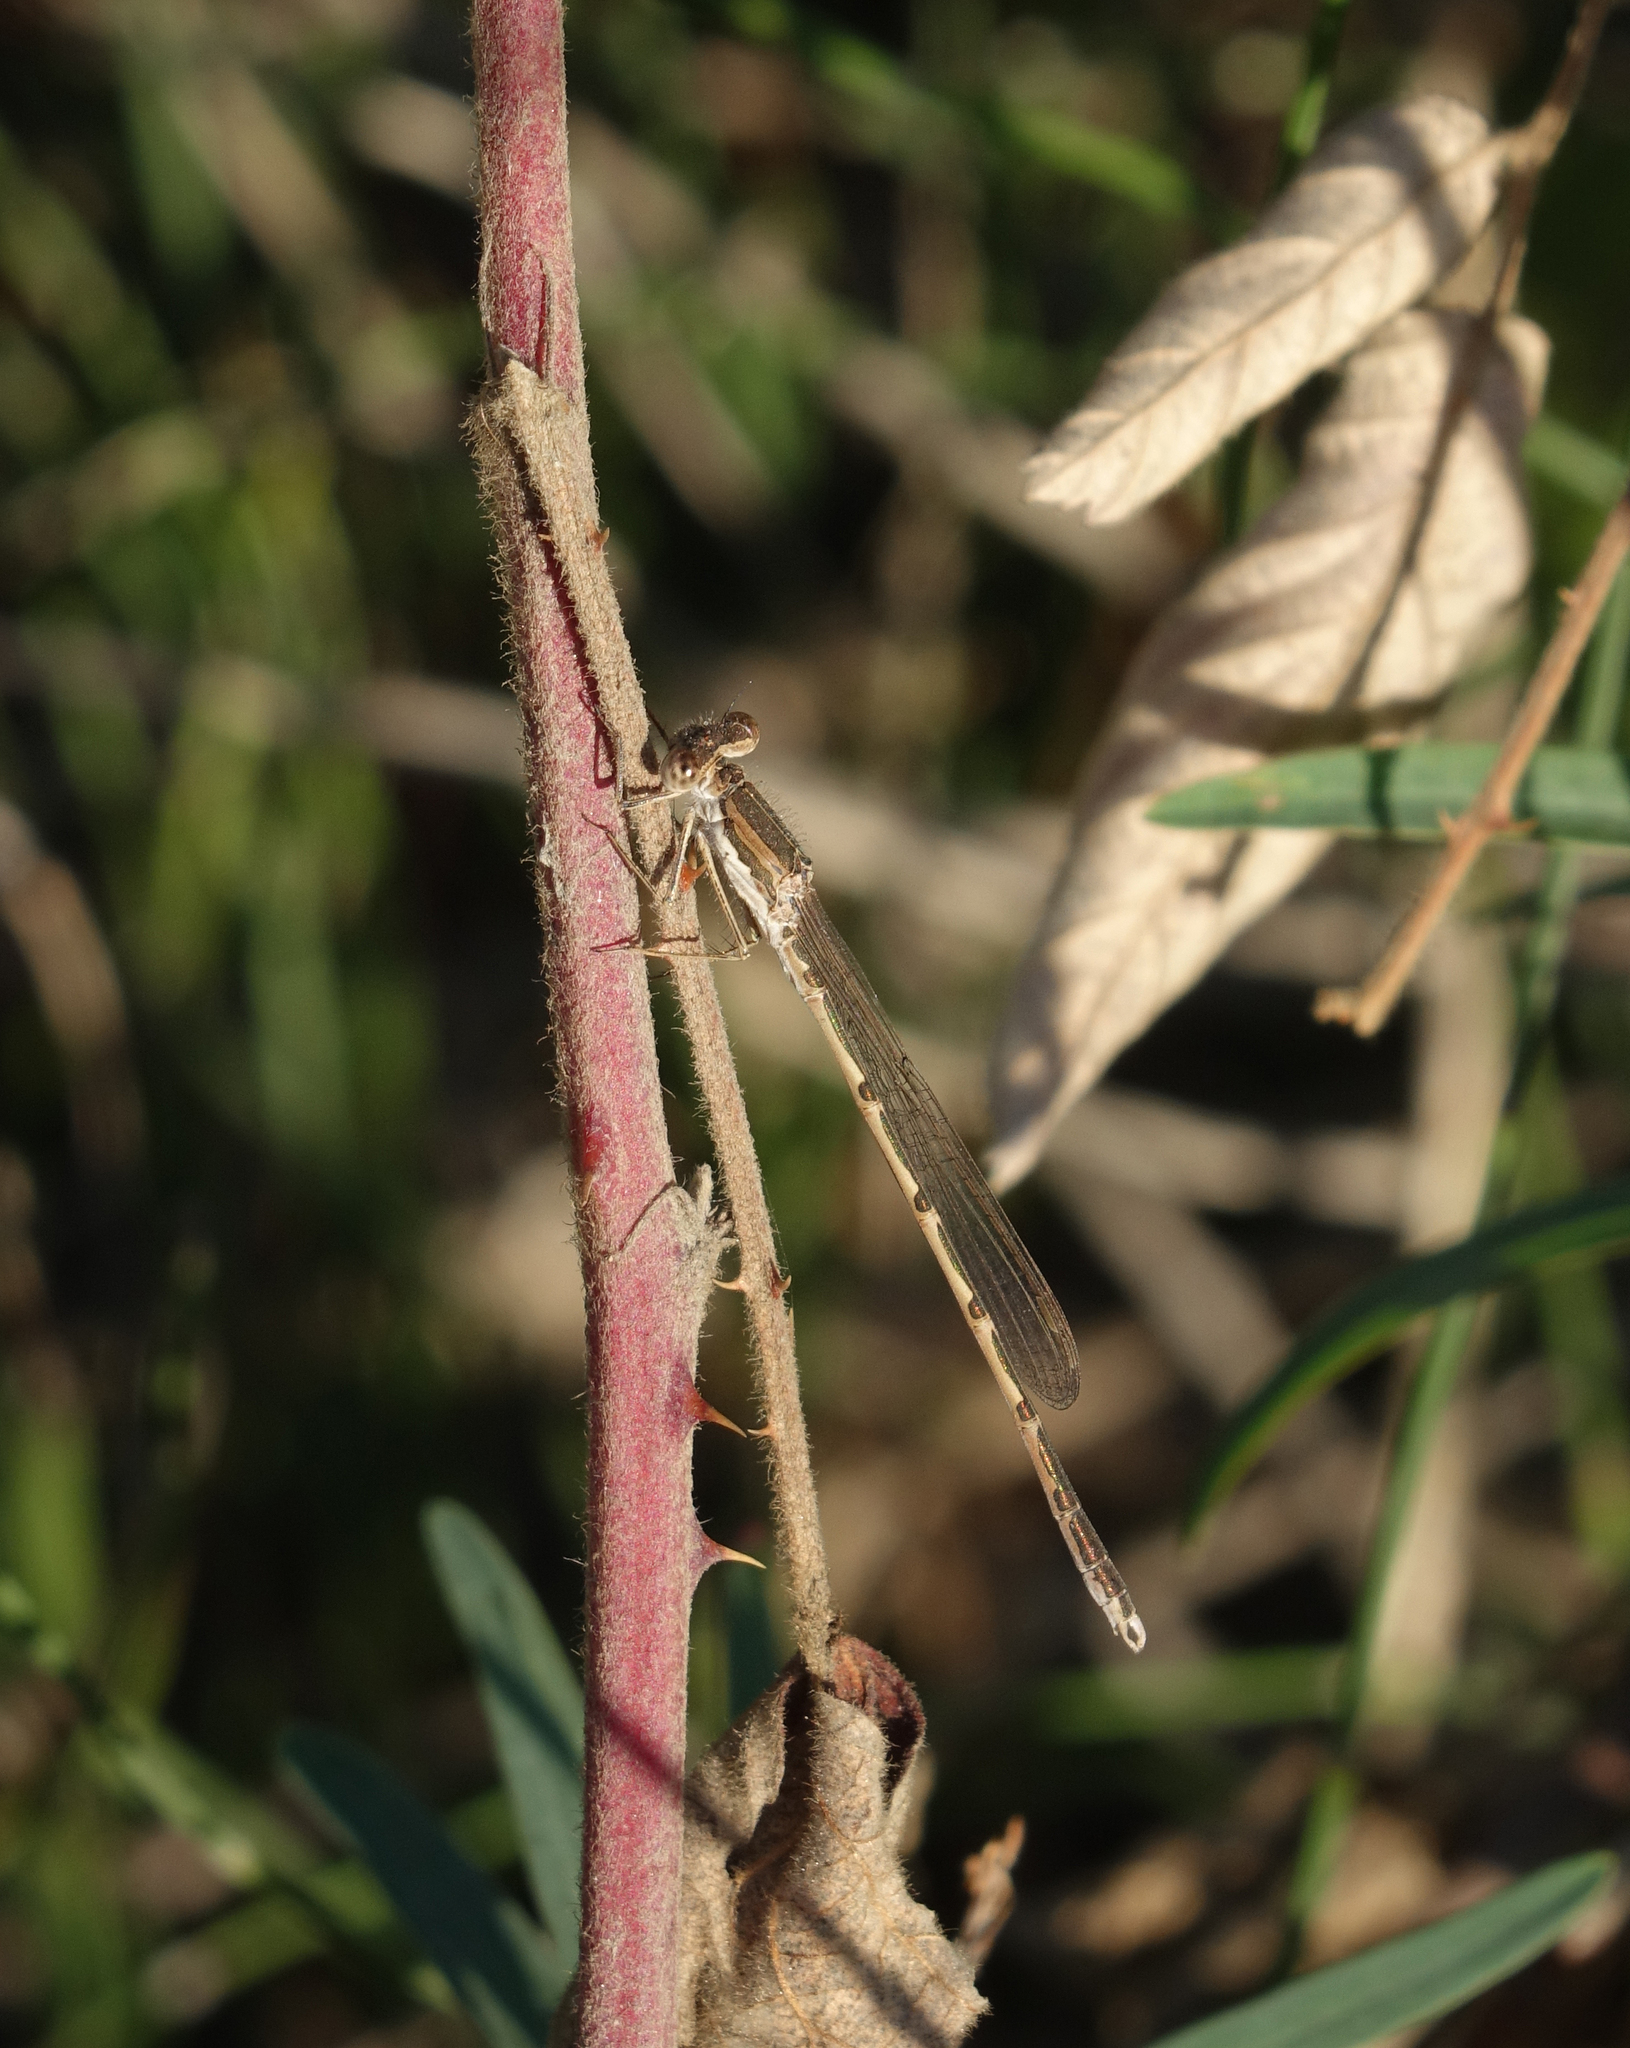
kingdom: Animalia
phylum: Arthropoda
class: Insecta
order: Odonata
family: Lestidae
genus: Sympecma
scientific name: Sympecma fusca
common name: Common winter damsel
